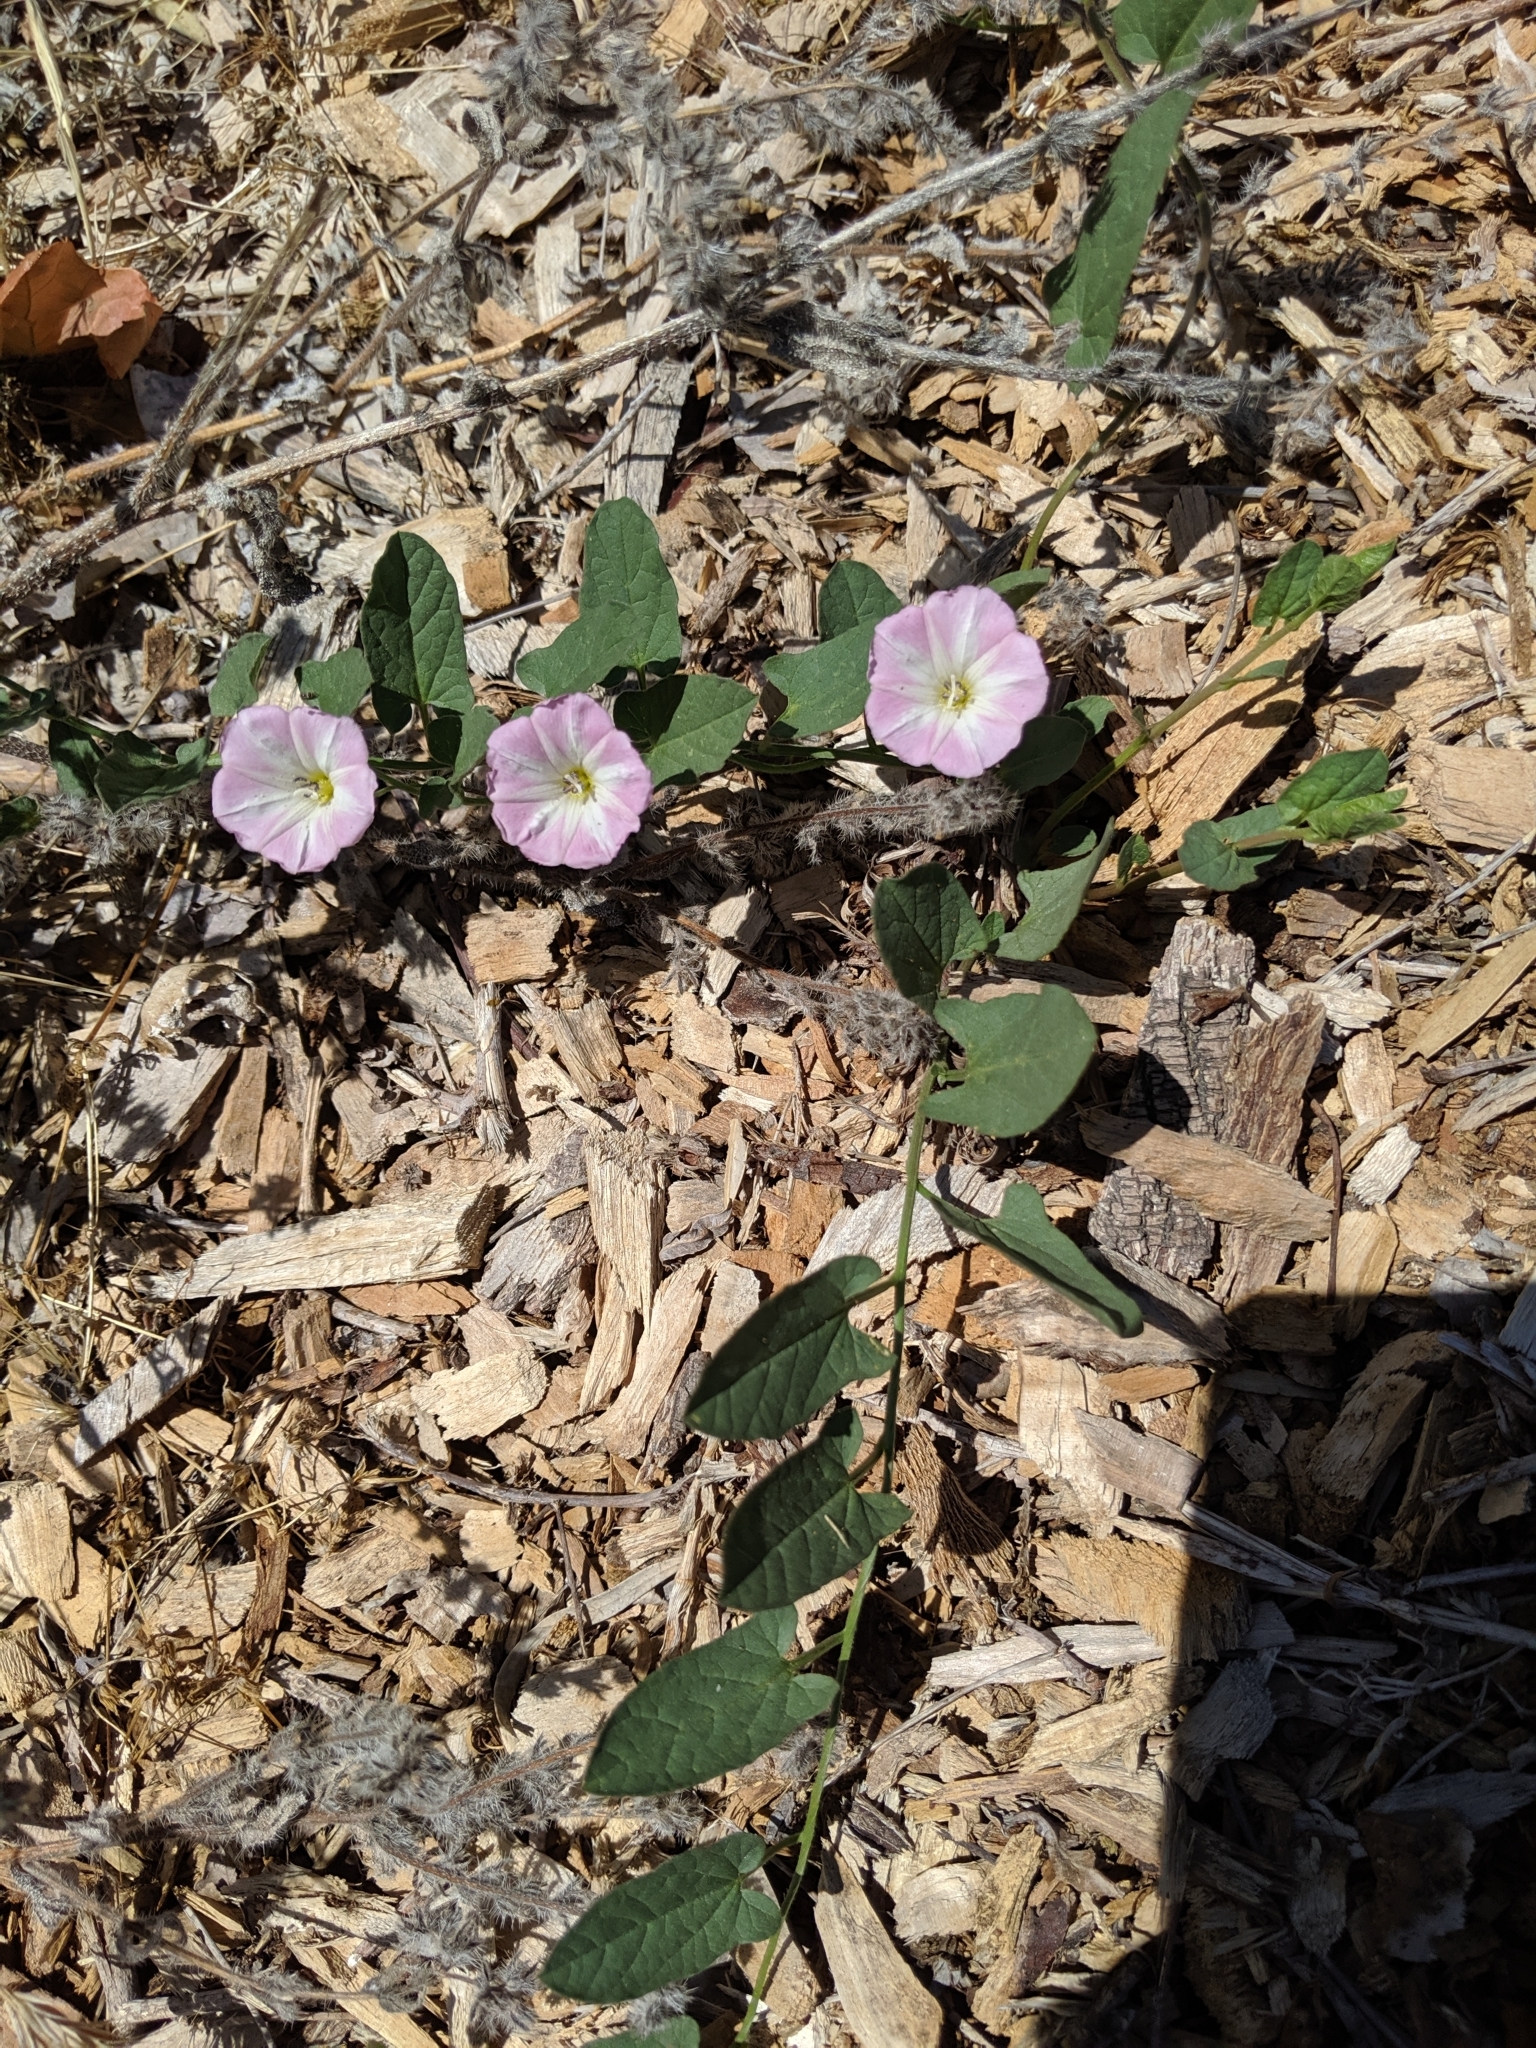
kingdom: Plantae
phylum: Tracheophyta
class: Magnoliopsida
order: Solanales
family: Convolvulaceae
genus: Convolvulus
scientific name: Convolvulus arvensis
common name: Field bindweed
